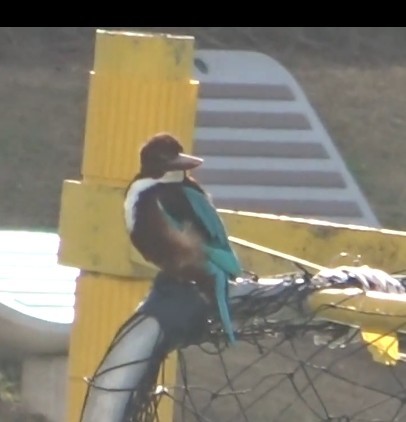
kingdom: Animalia
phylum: Chordata
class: Aves
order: Coraciiformes
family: Alcedinidae
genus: Halcyon
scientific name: Halcyon smyrnensis
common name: White-throated kingfisher
